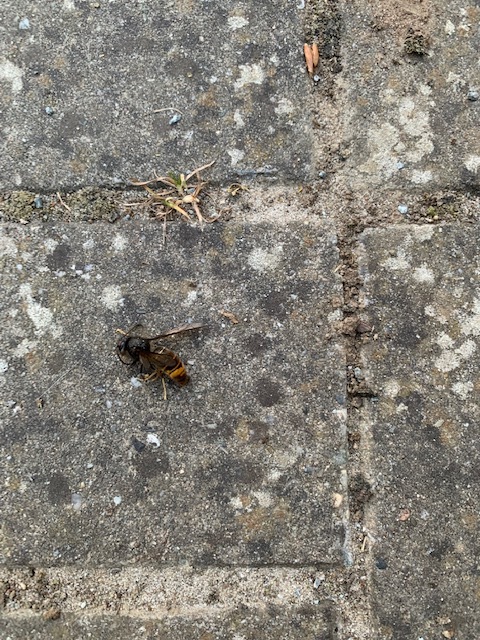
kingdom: Animalia
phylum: Arthropoda
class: Insecta
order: Hymenoptera
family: Vespidae
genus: Vespa
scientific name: Vespa velutina
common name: Asian hornet
